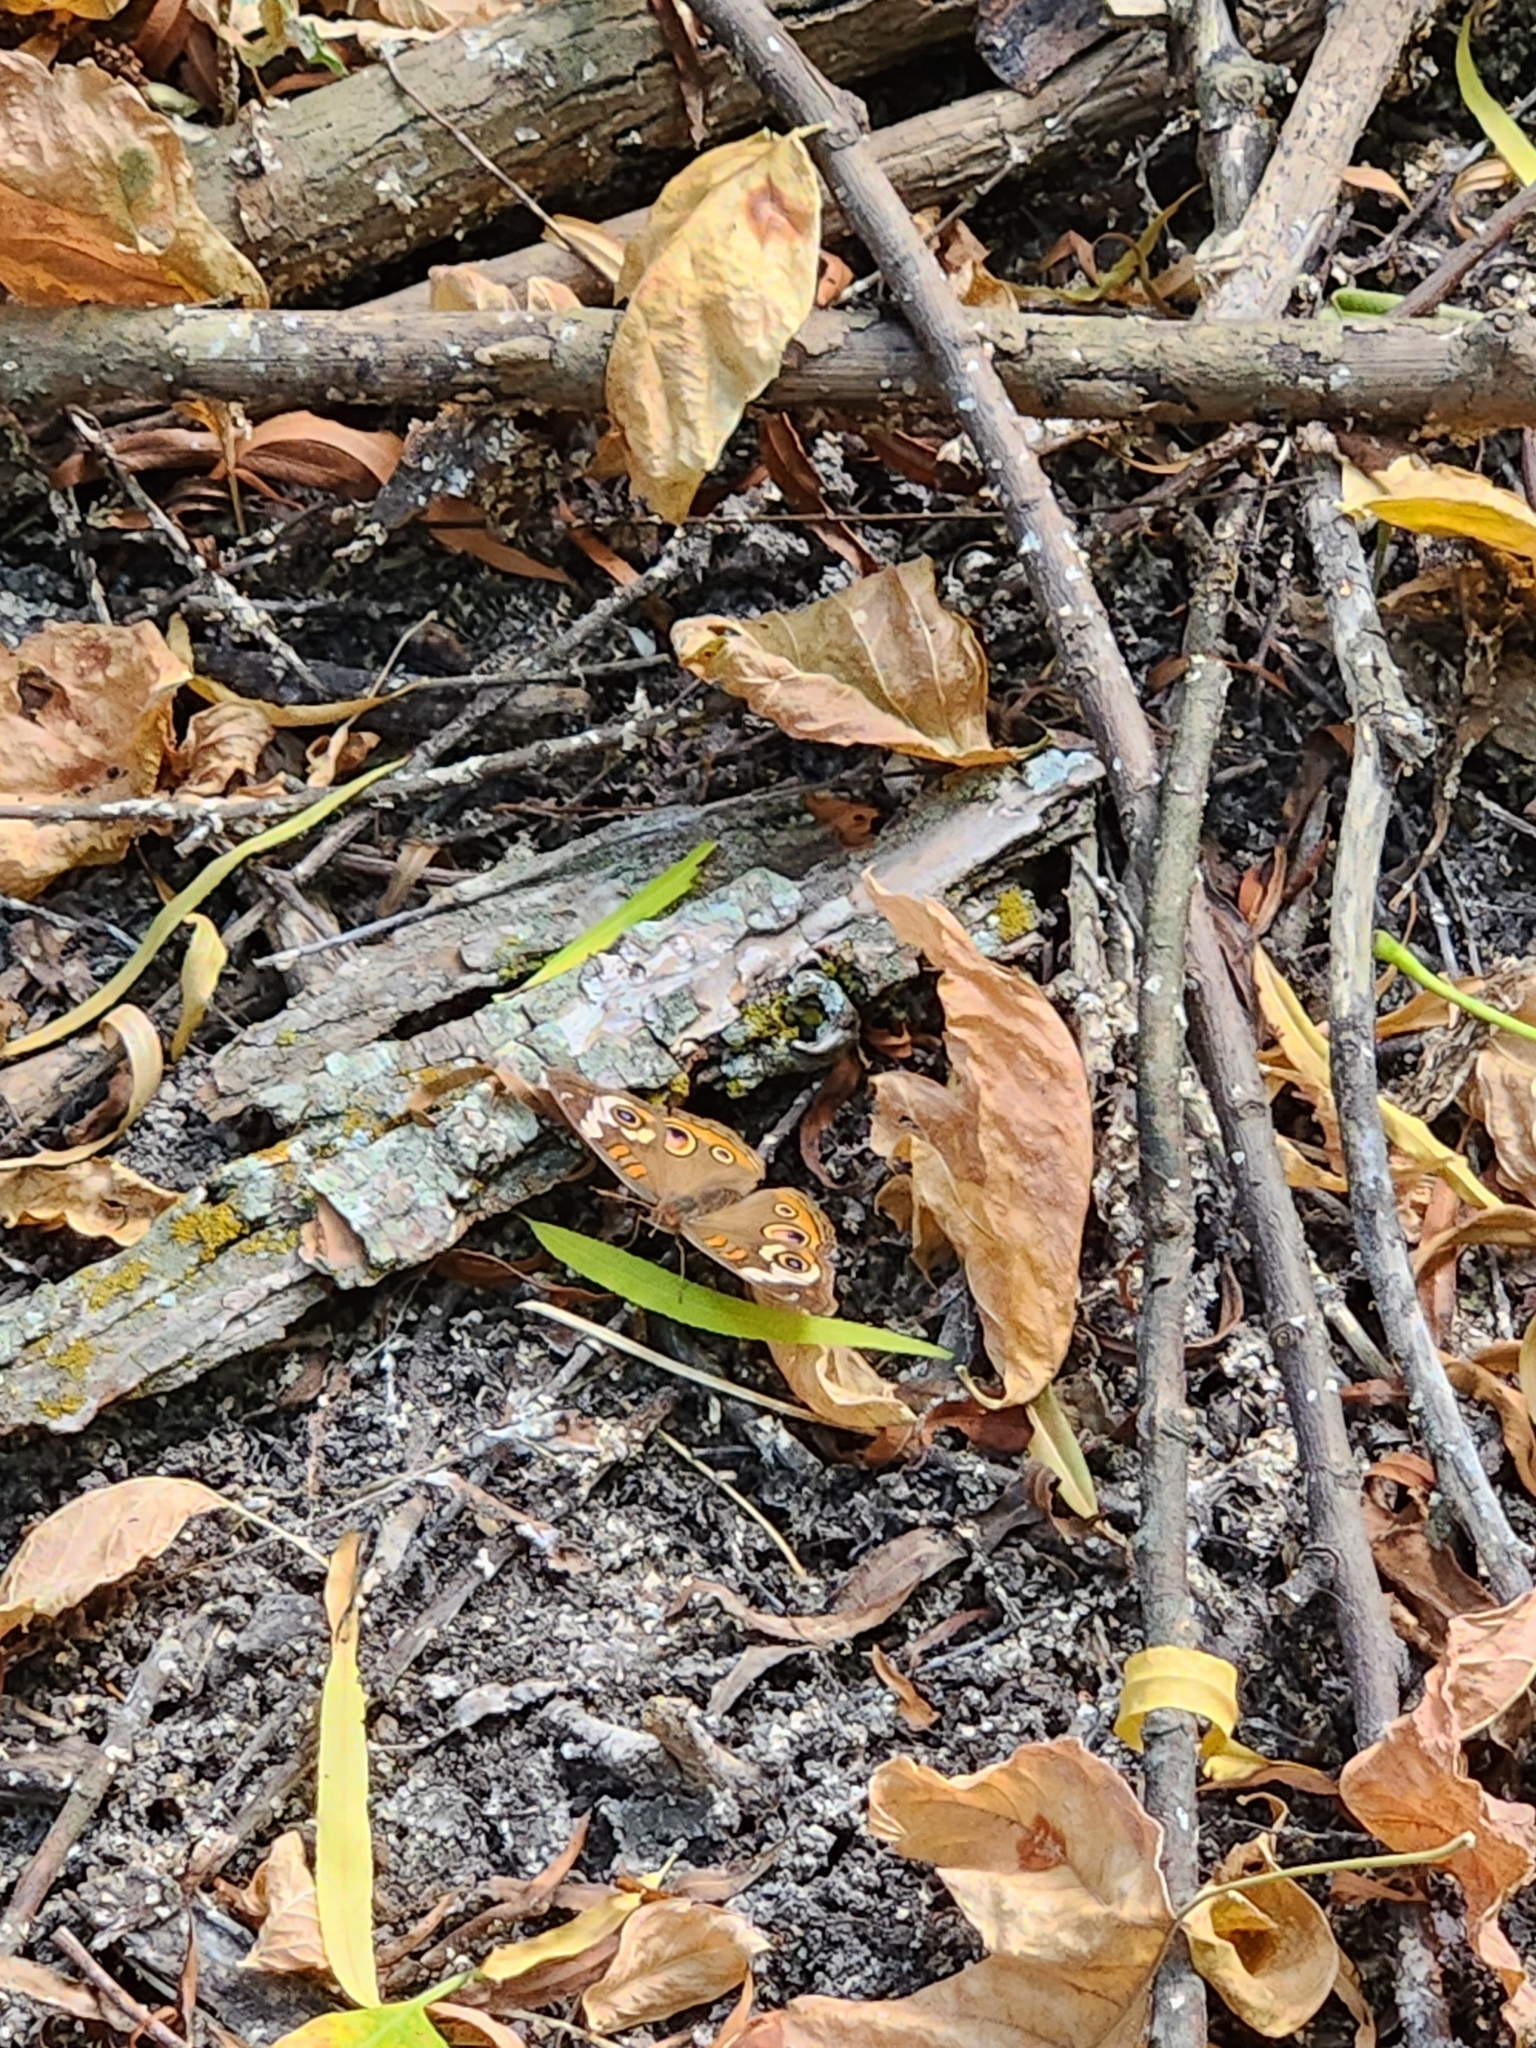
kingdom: Animalia
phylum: Arthropoda
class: Insecta
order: Lepidoptera
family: Nymphalidae
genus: Junonia
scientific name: Junonia coenia
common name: Common buckeye
